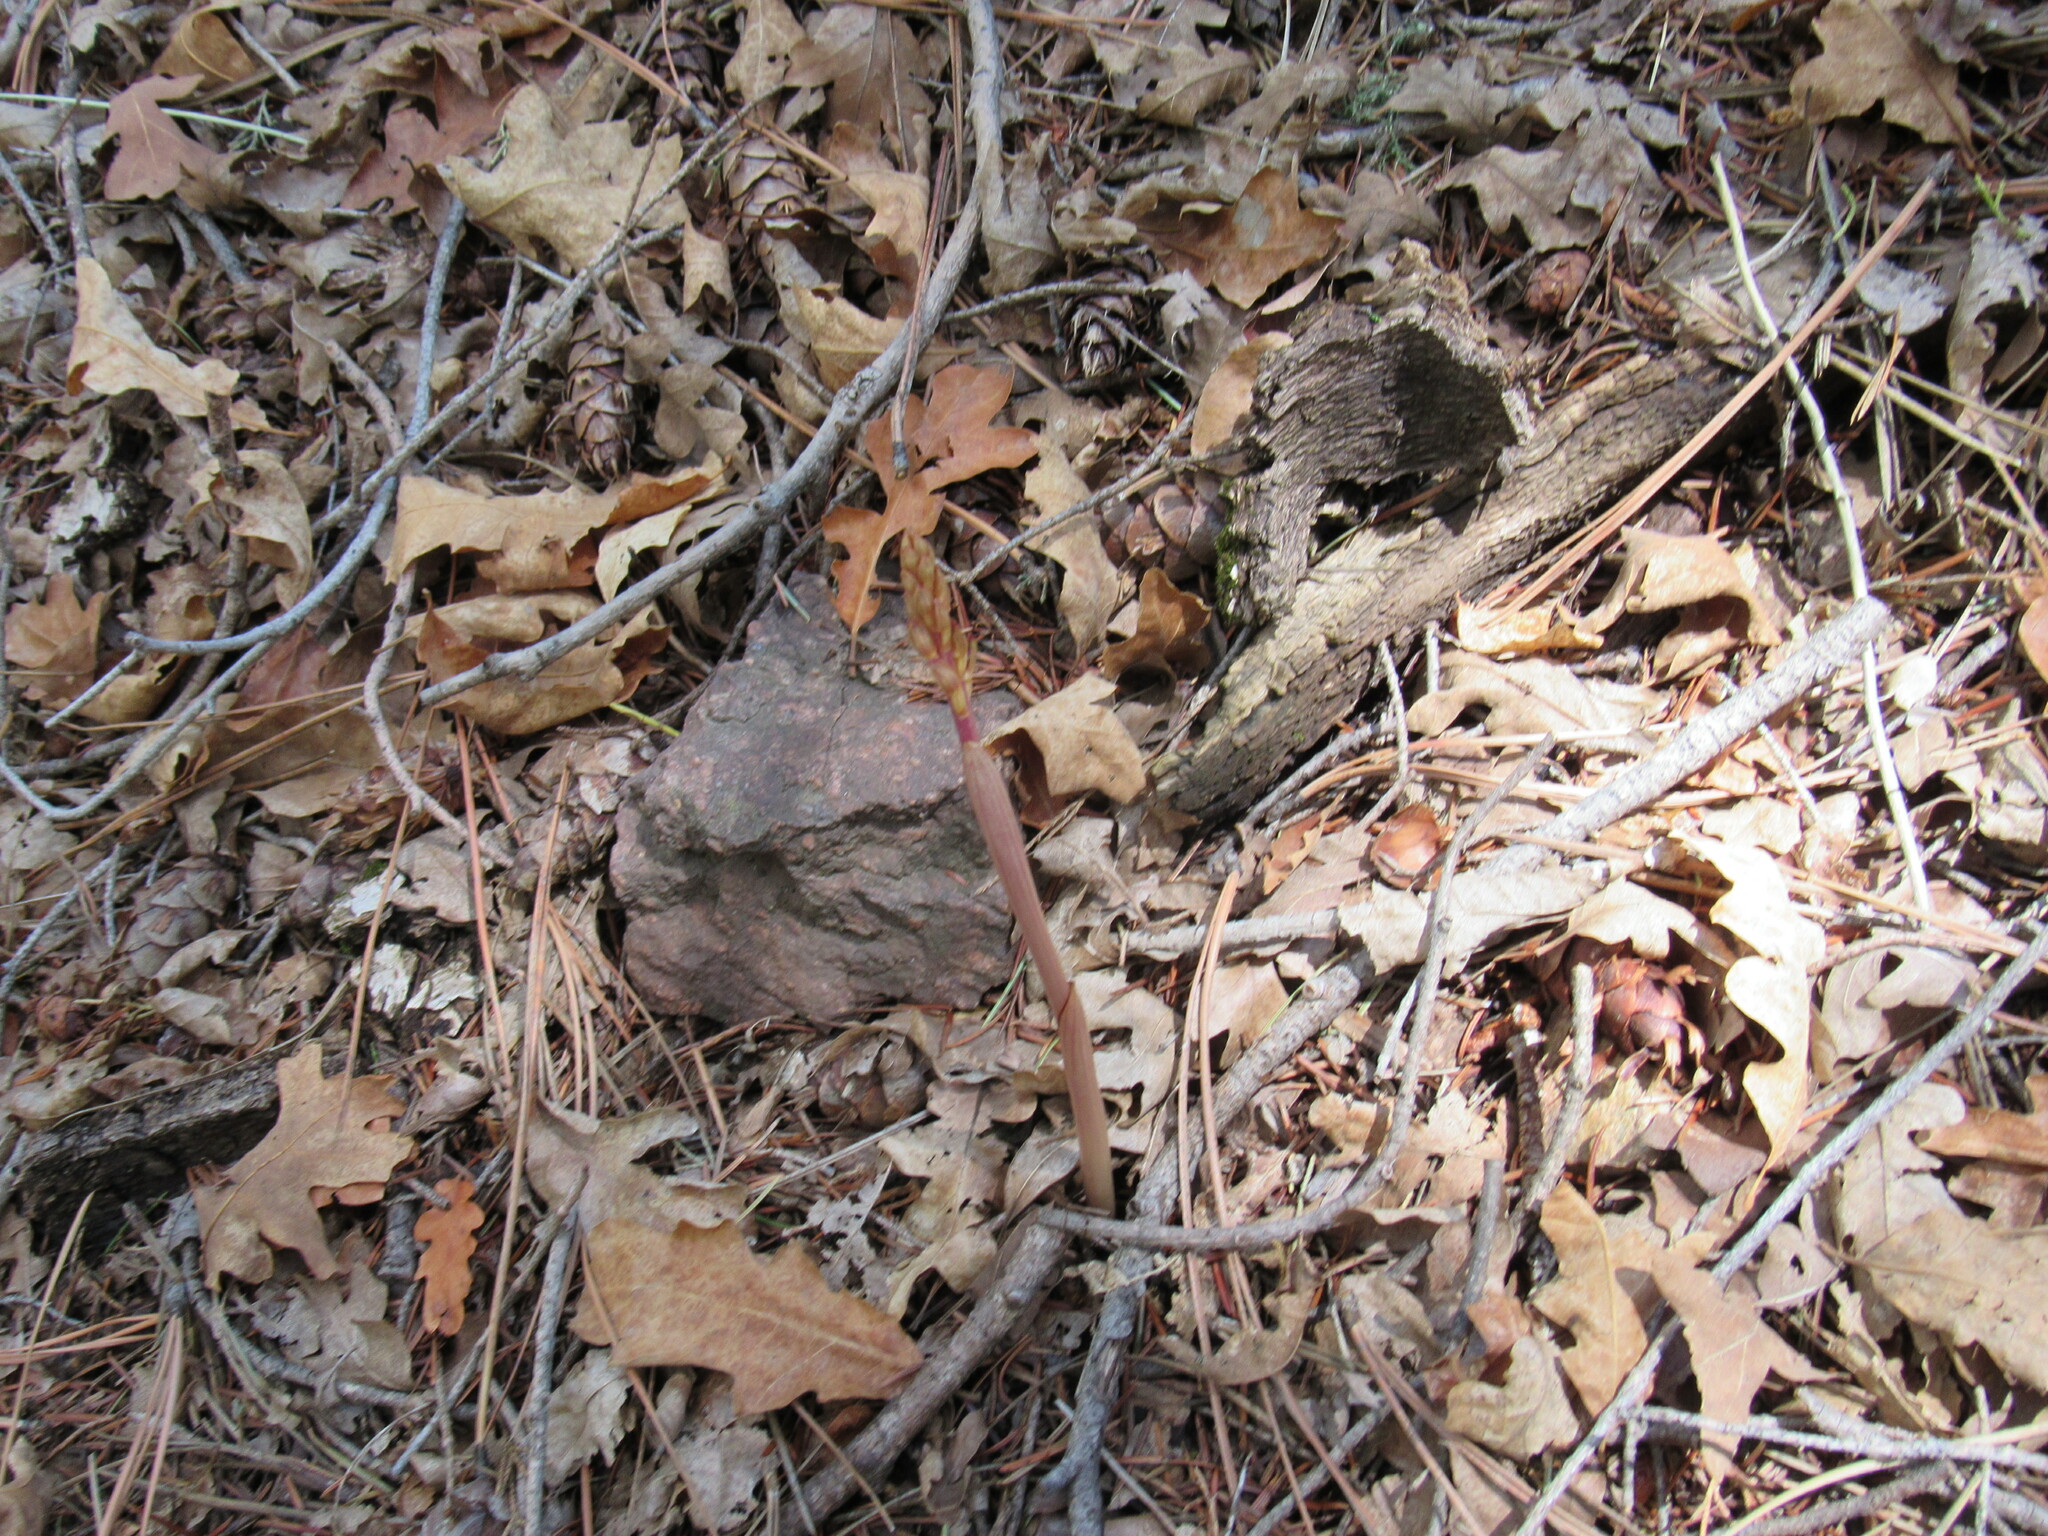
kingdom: Plantae
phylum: Tracheophyta
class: Liliopsida
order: Asparagales
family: Orchidaceae
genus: Corallorhiza
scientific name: Corallorhiza striata
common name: Hooded coralroot
